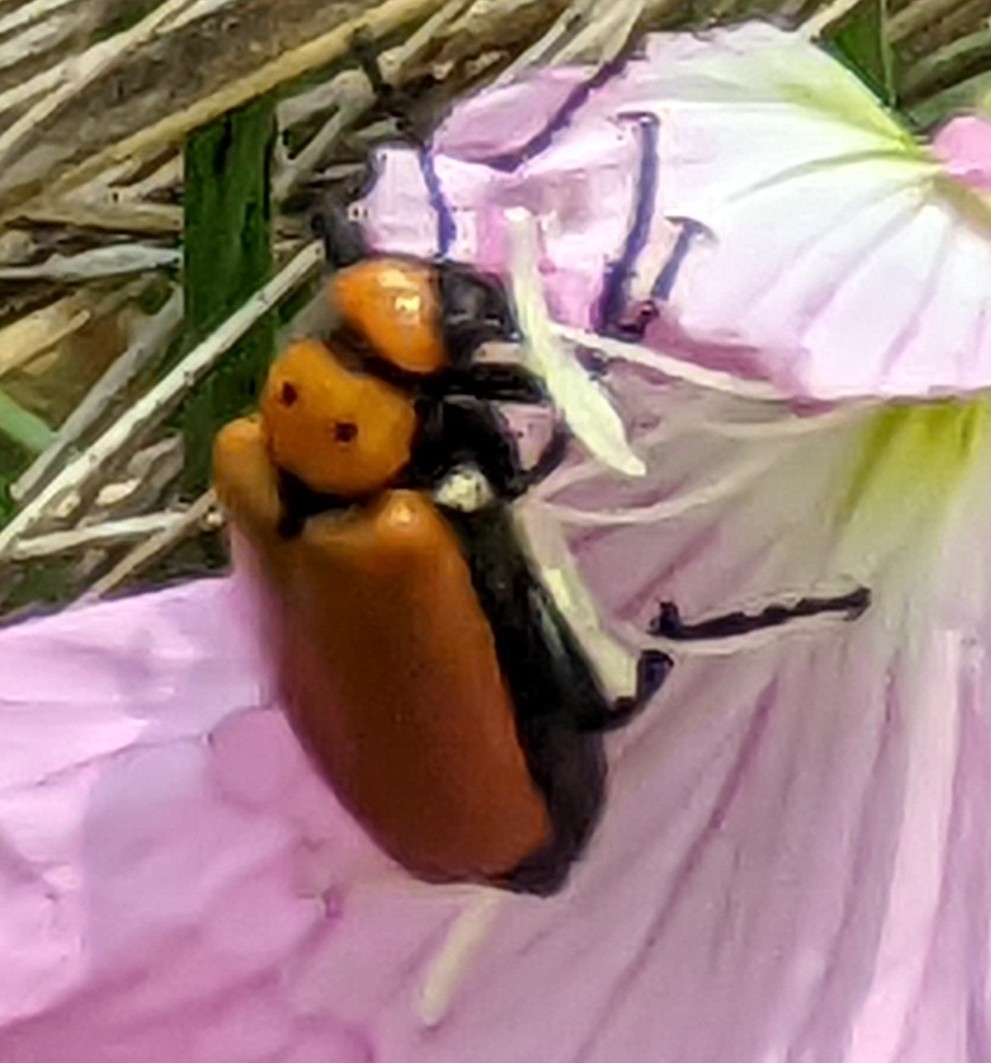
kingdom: Animalia
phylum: Arthropoda
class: Insecta
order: Coleoptera
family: Meloidae
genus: Lytta
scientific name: Lytta lecontei
